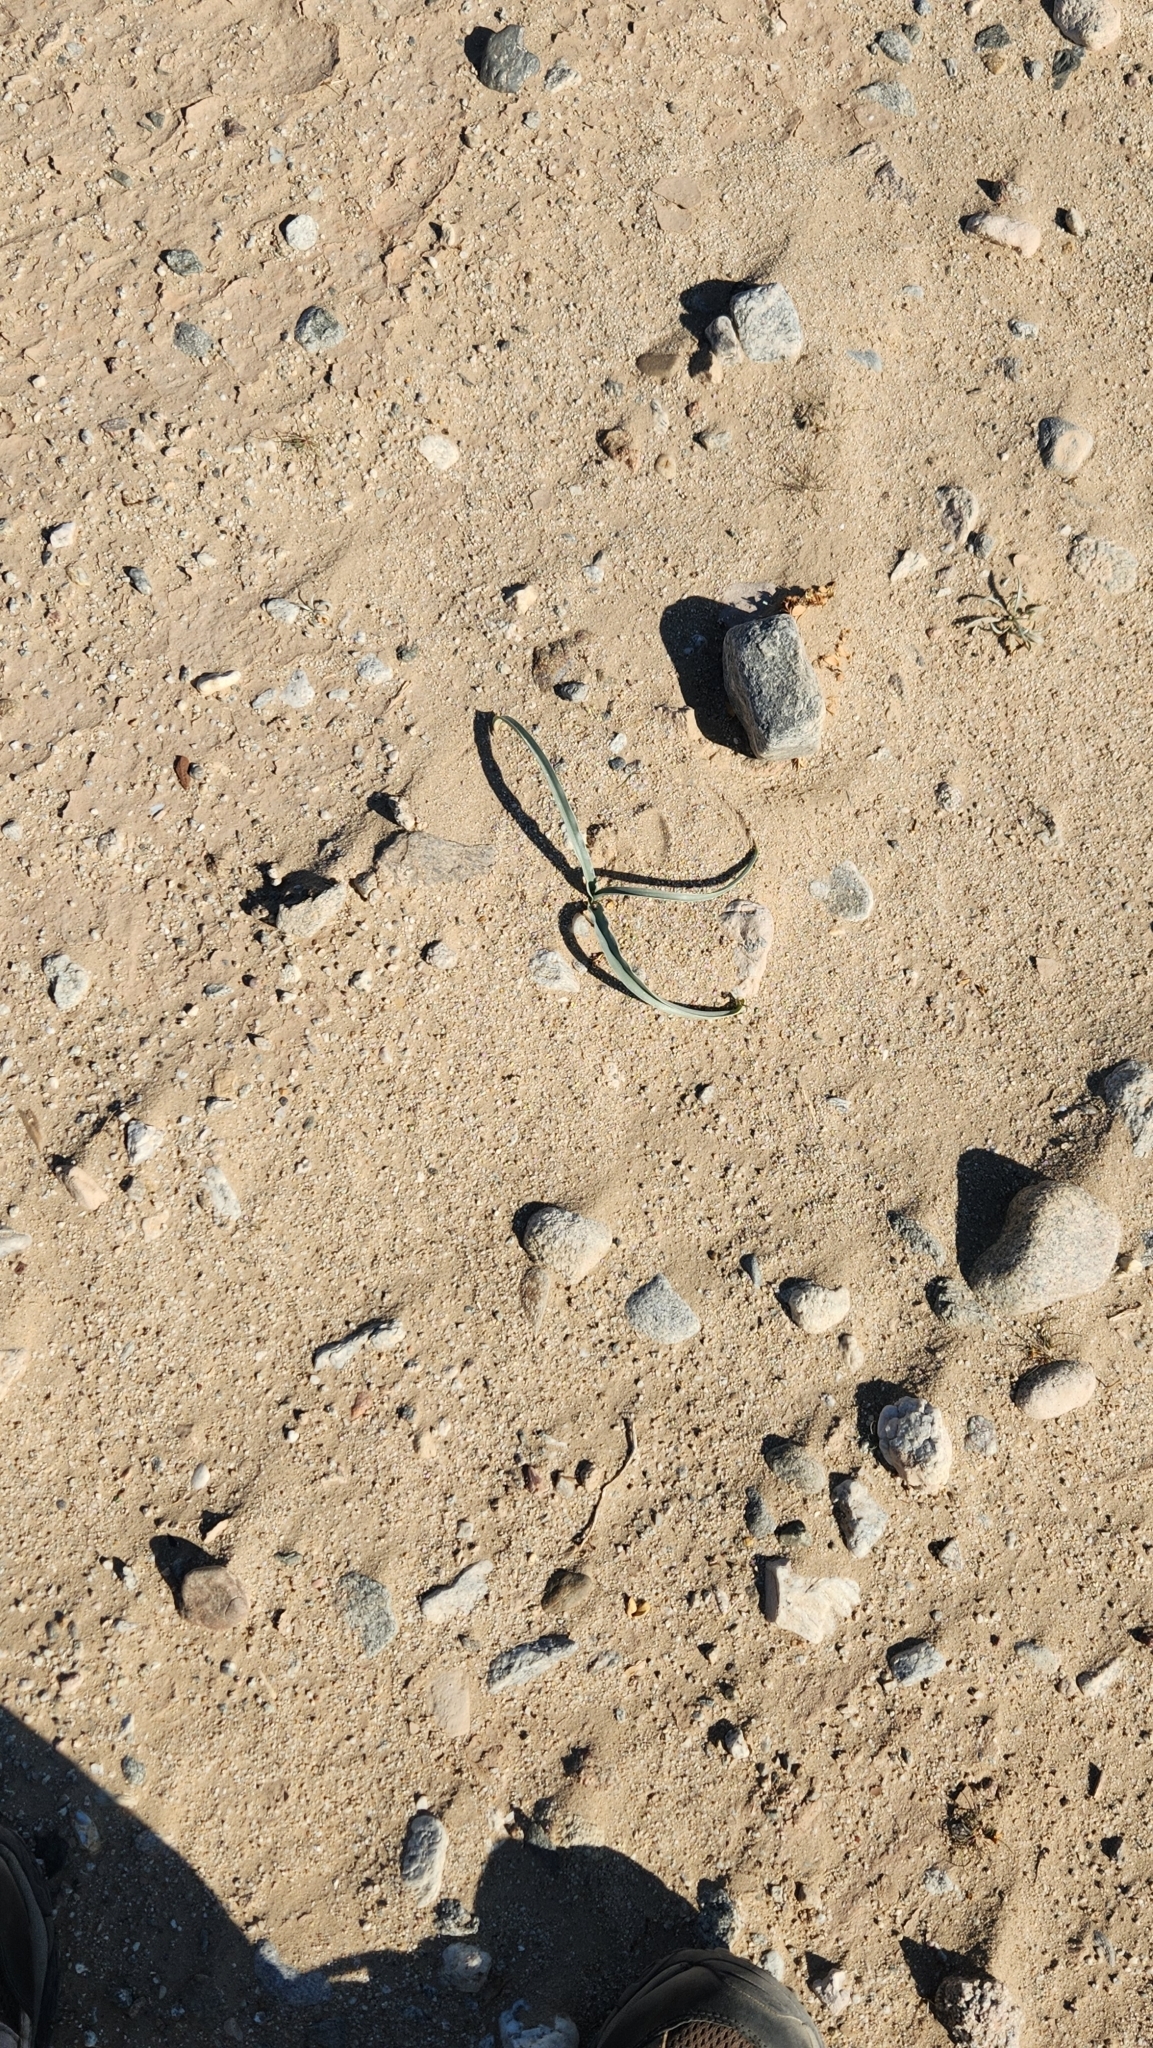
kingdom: Plantae
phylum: Tracheophyta
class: Liliopsida
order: Asparagales
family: Asparagaceae
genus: Hesperocallis
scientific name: Hesperocallis undulata
